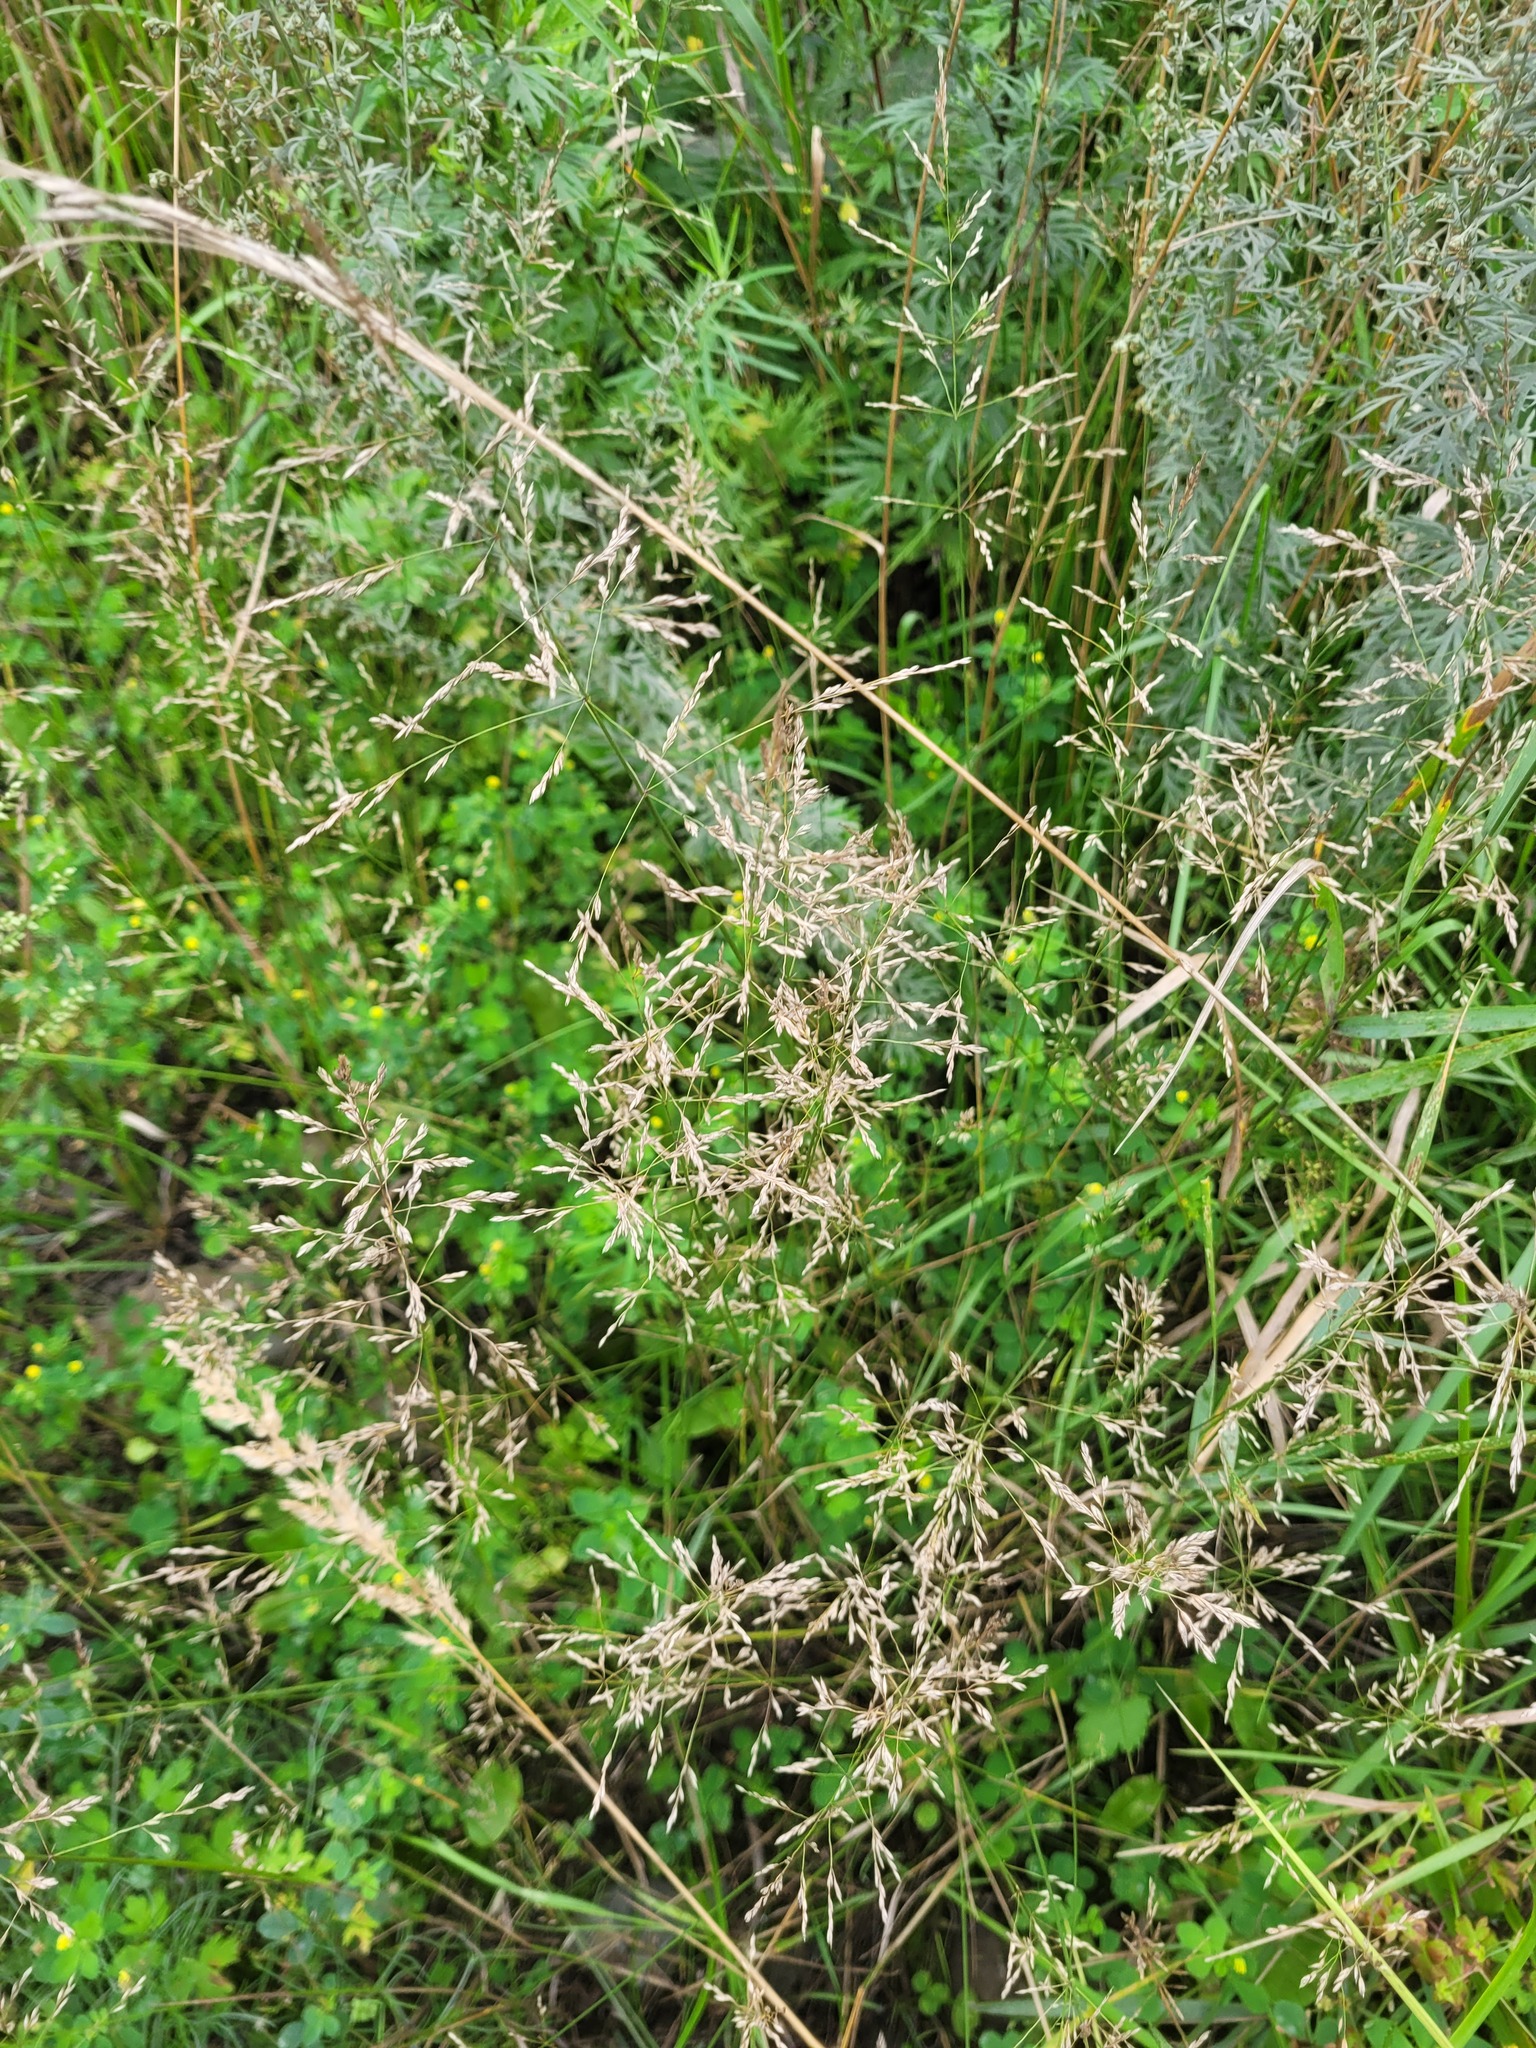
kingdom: Plantae
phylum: Tracheophyta
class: Liliopsida
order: Poales
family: Poaceae
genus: Poa
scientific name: Poa palustris
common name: Swamp meadow-grass
